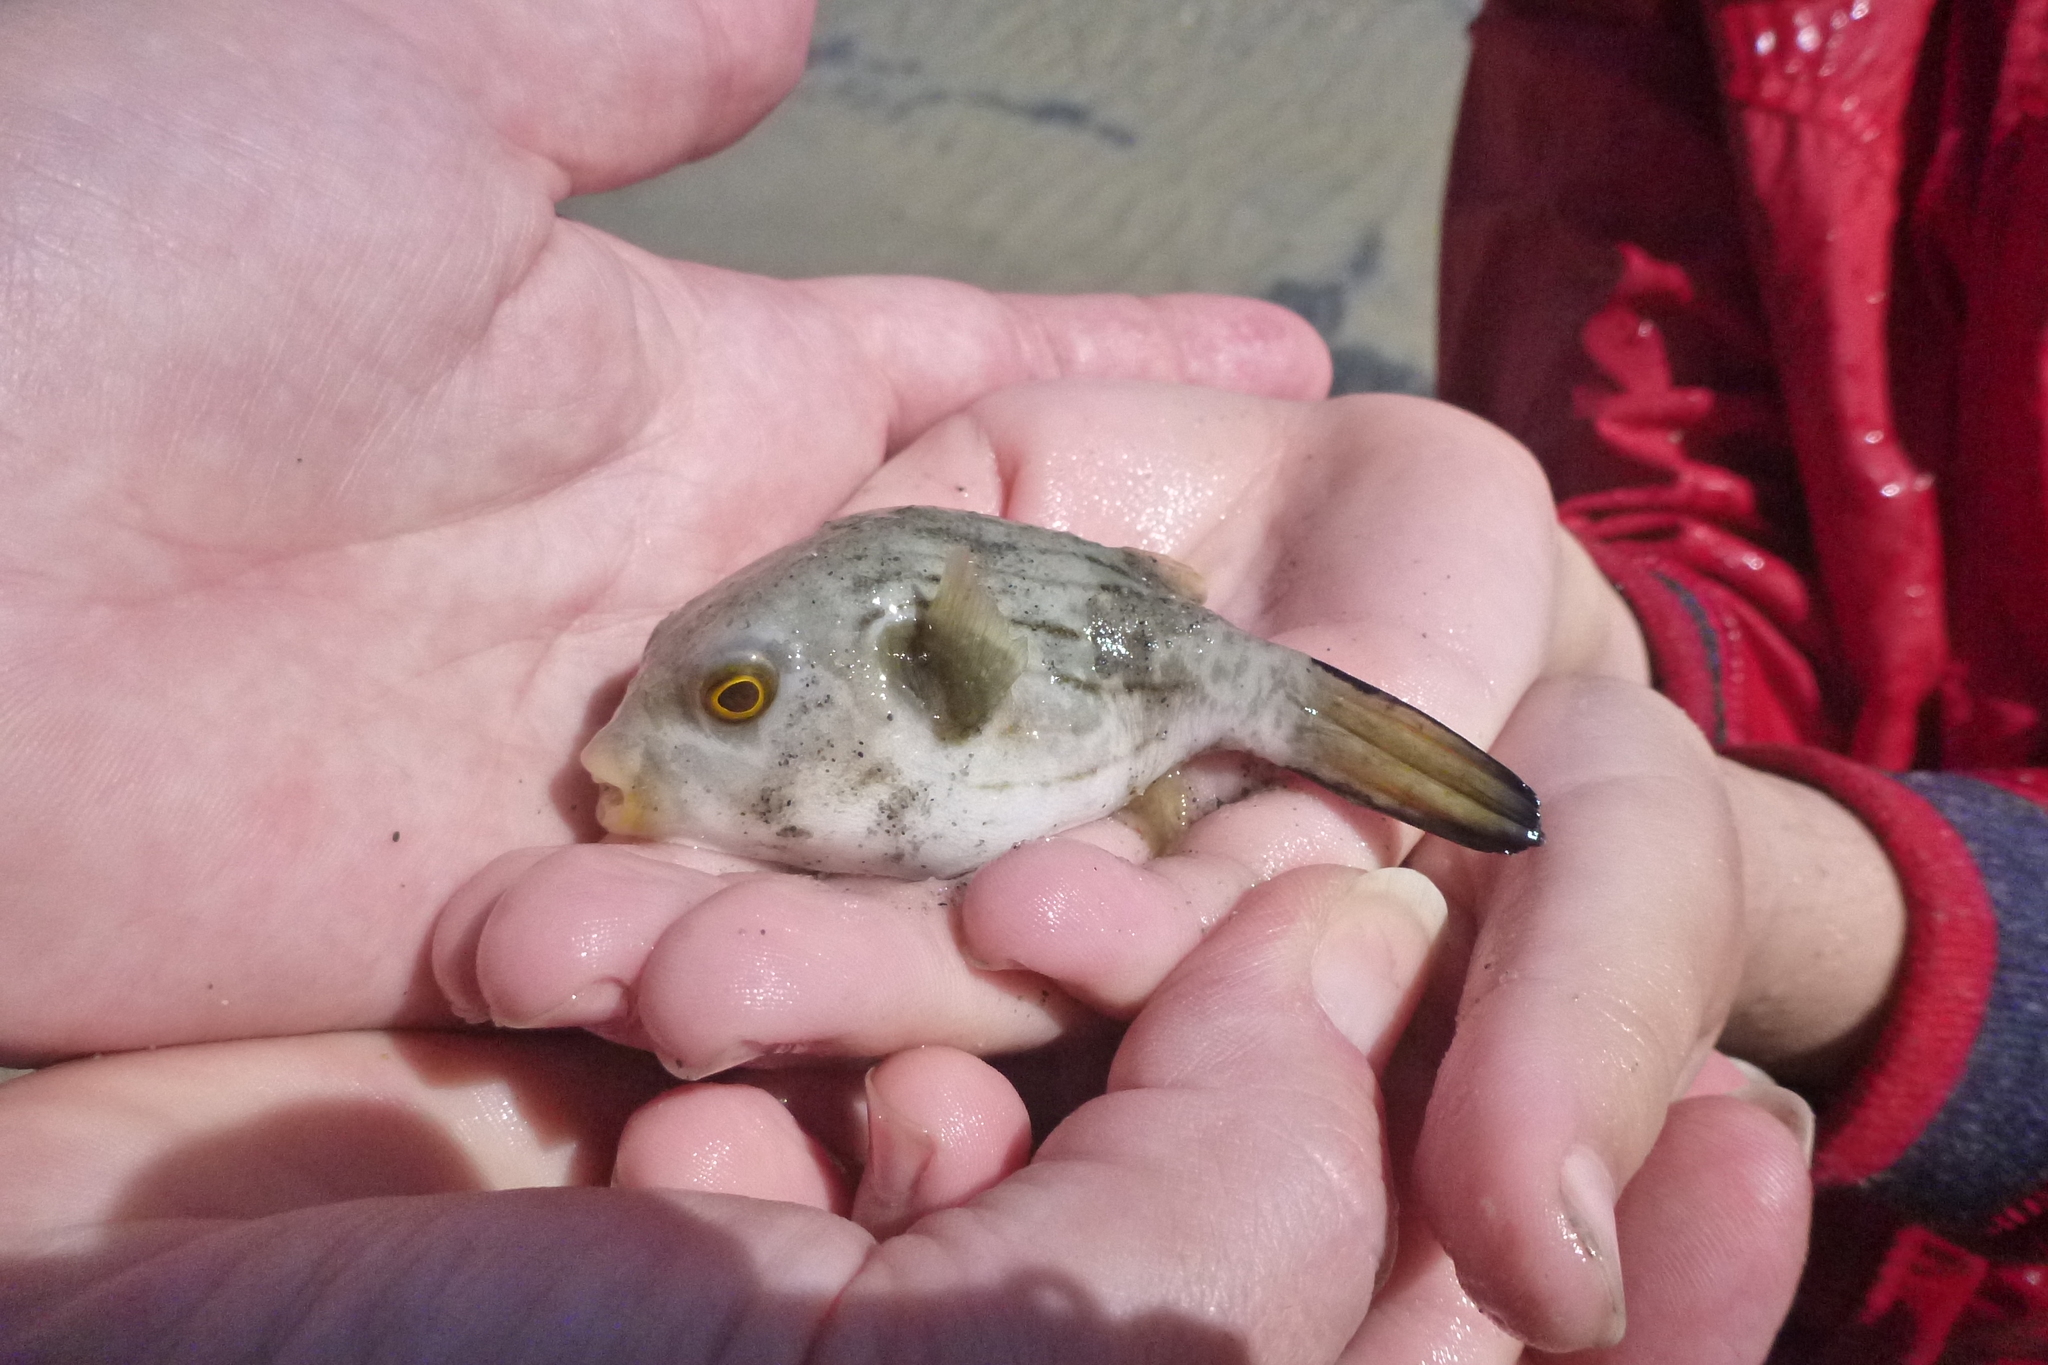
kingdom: Animalia
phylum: Chordata
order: Tetraodontiformes
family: Tetraodontidae
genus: Arothron
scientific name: Arothron manilensis
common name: Narrow-lined puffer
